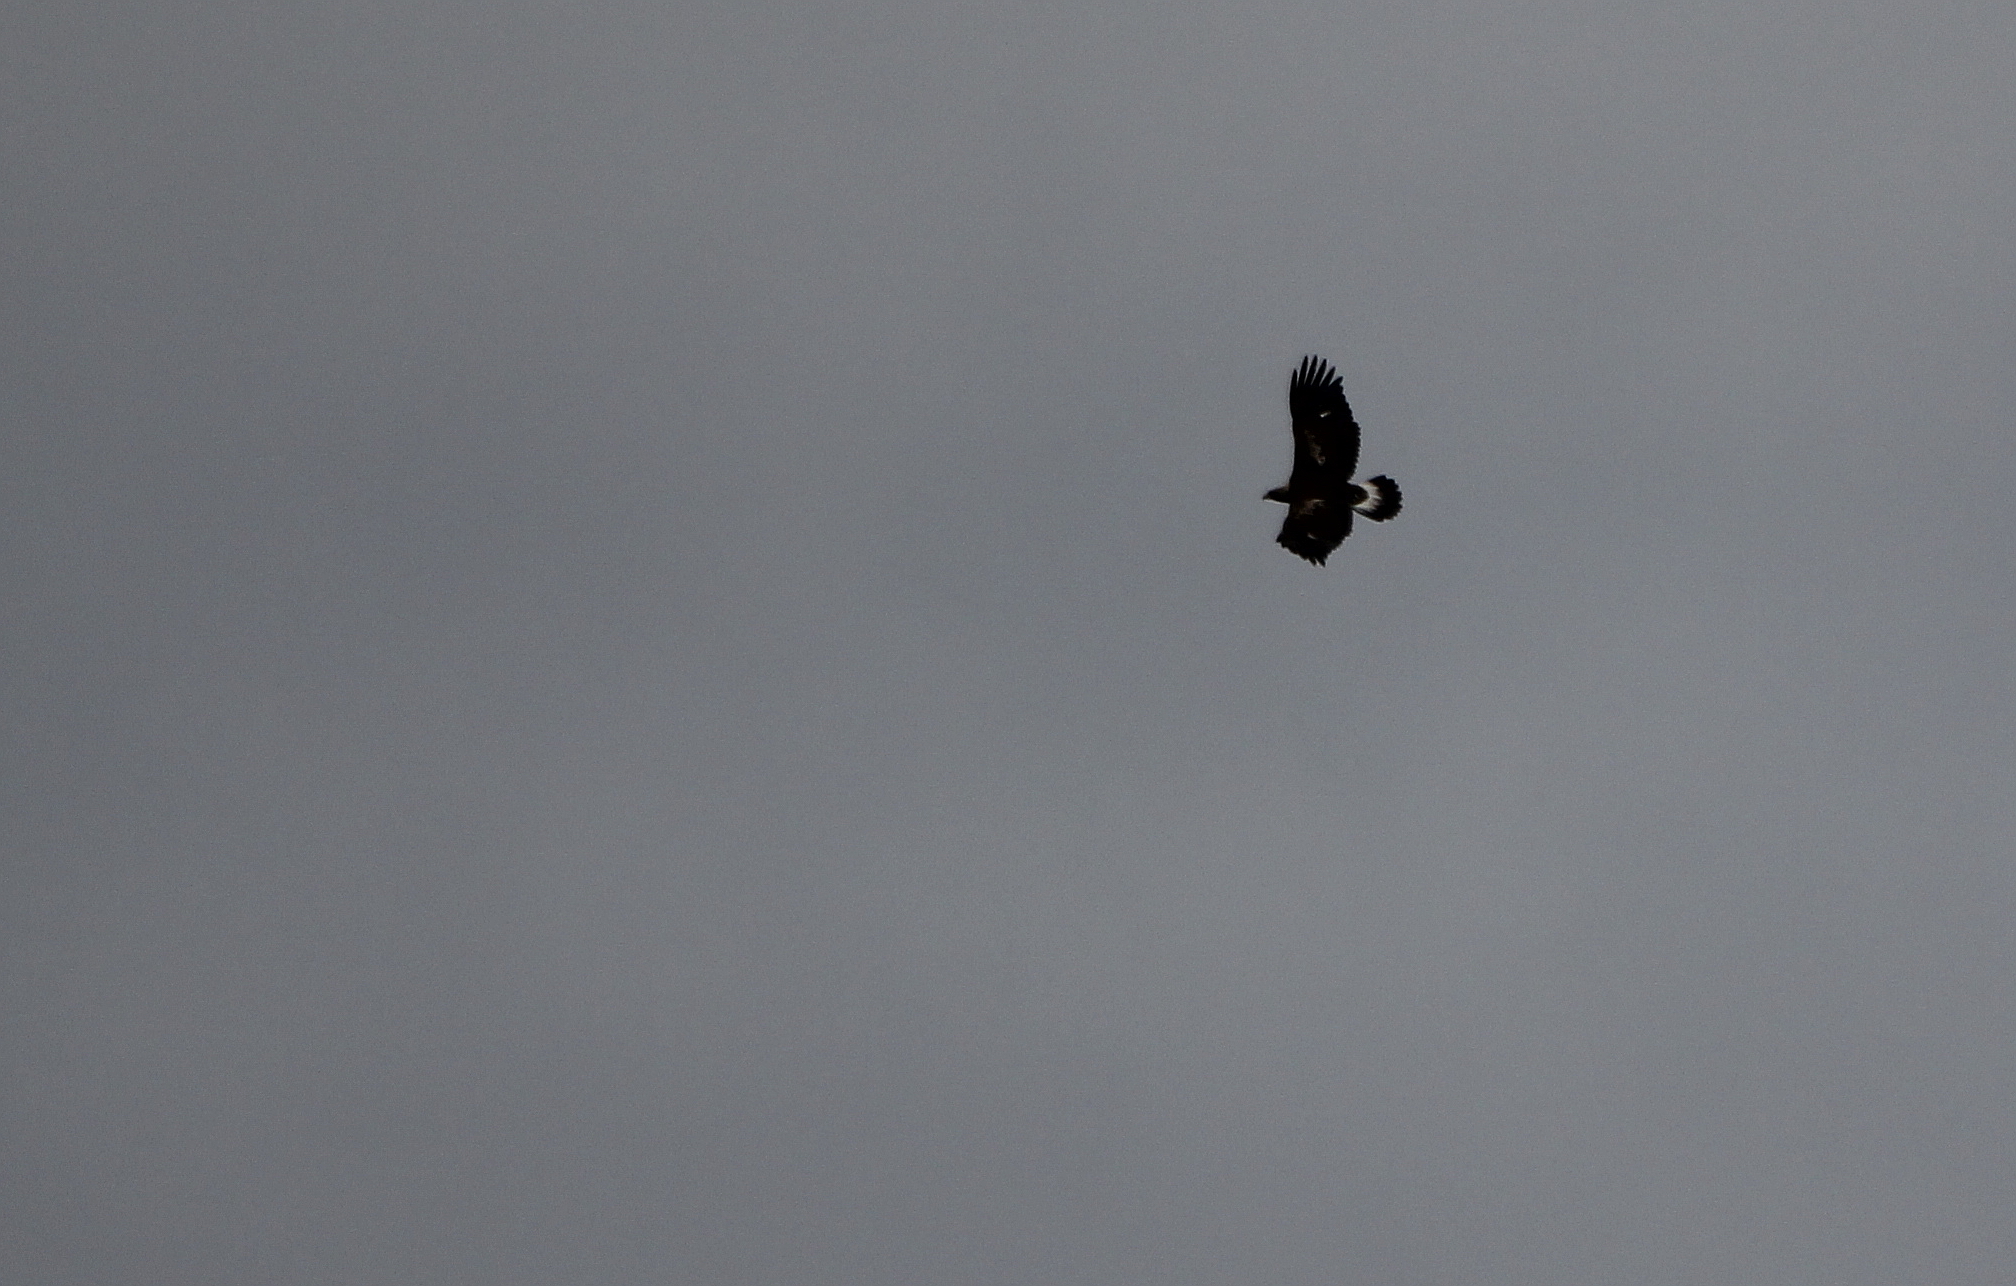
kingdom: Animalia
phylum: Chordata
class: Aves
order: Accipitriformes
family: Accipitridae
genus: Aquila
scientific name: Aquila chrysaetos
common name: Golden eagle
